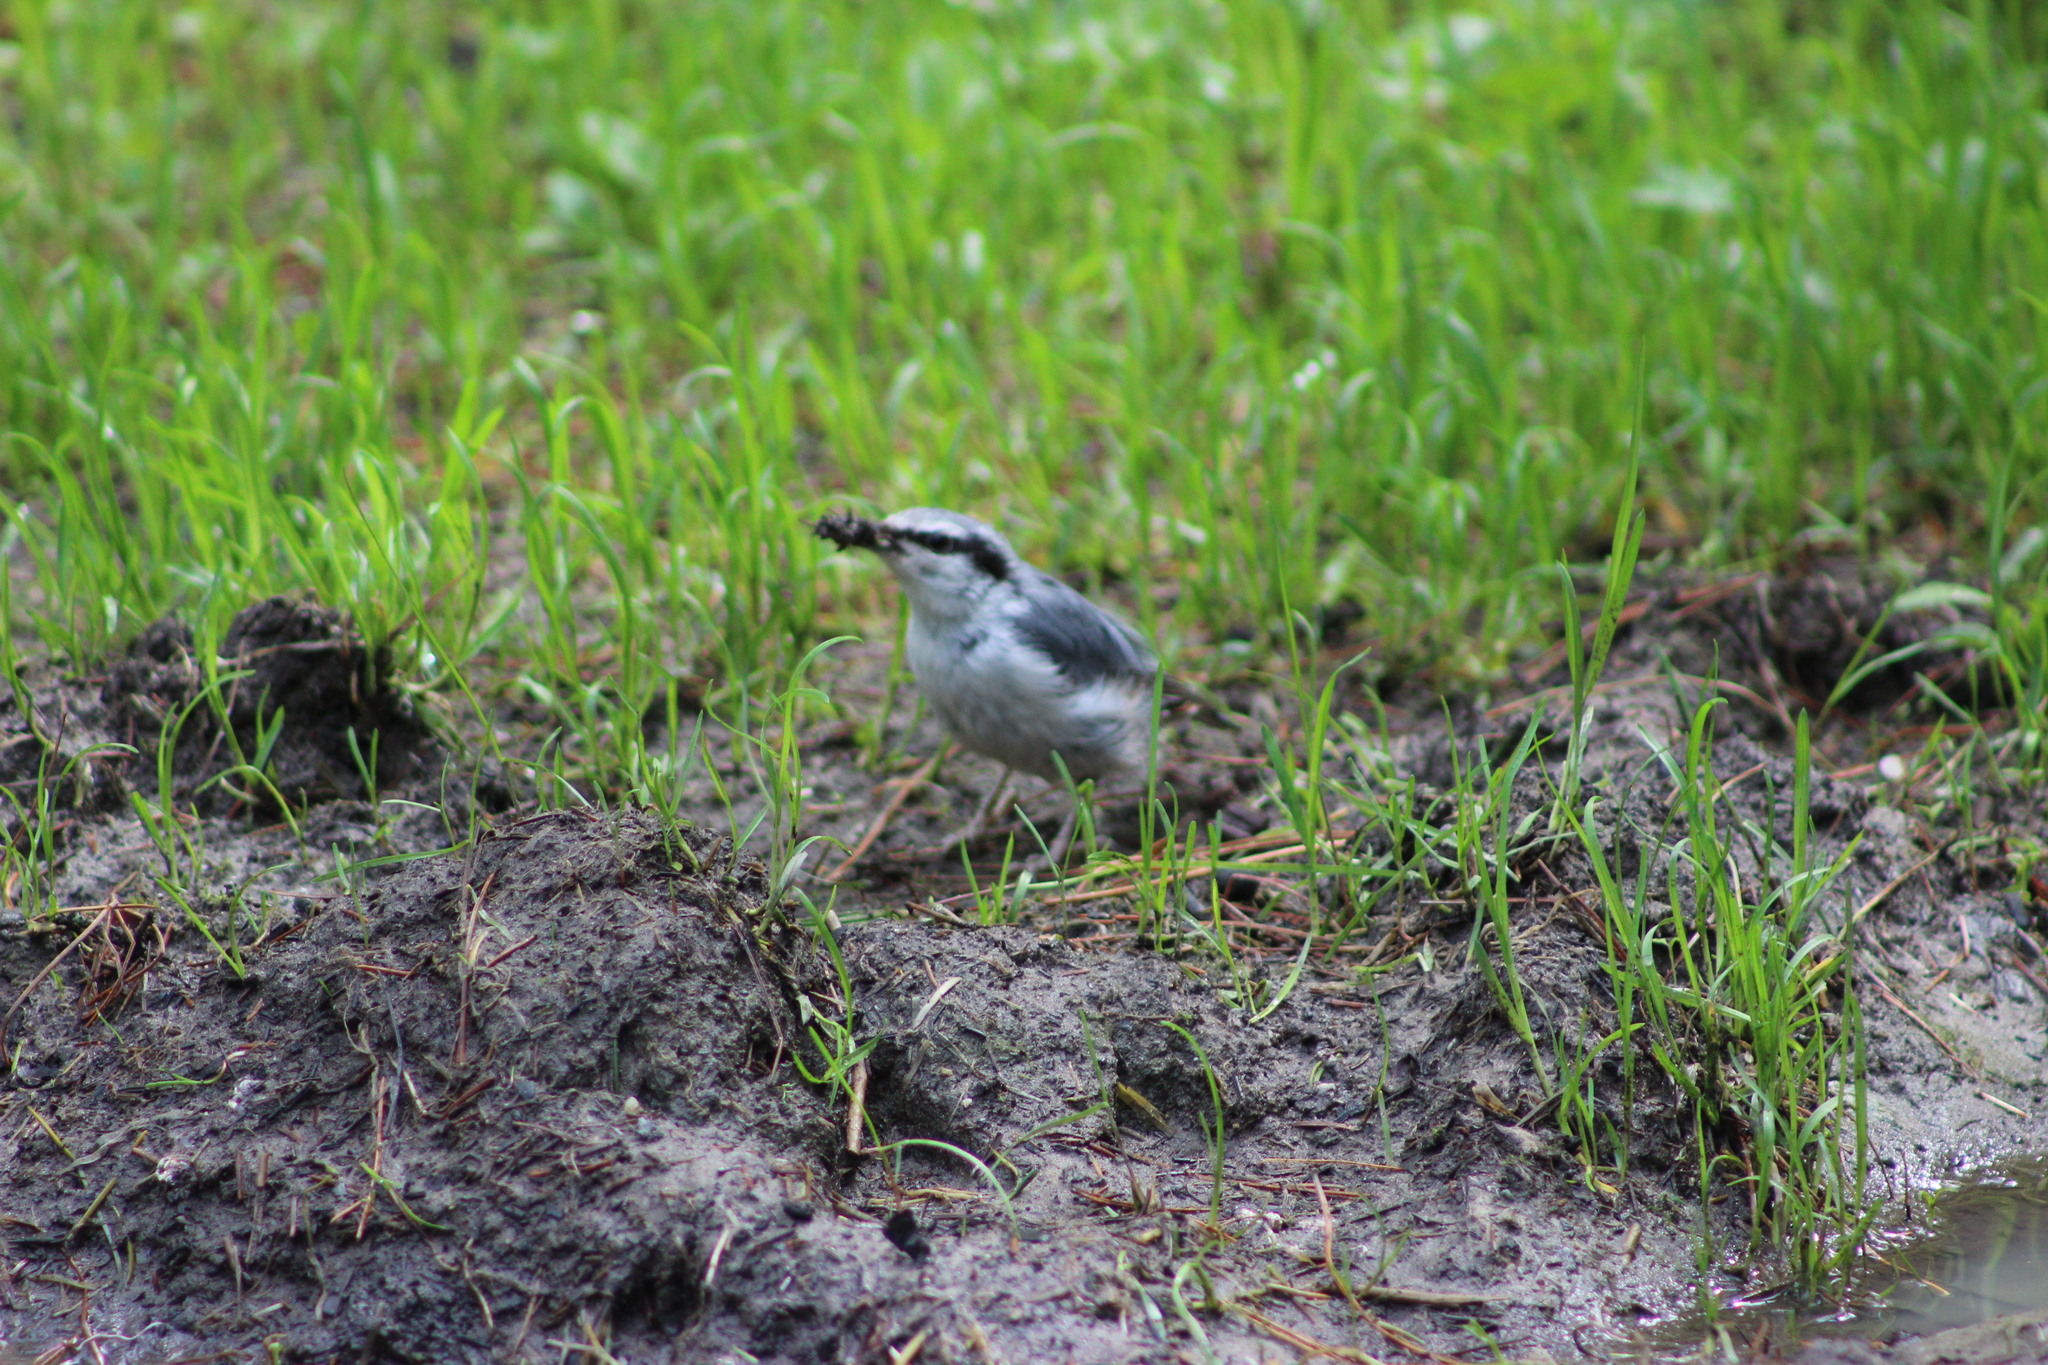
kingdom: Animalia
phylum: Chordata
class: Aves
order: Passeriformes
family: Sittidae
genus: Sitta
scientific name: Sitta europaea
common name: Eurasian nuthatch
